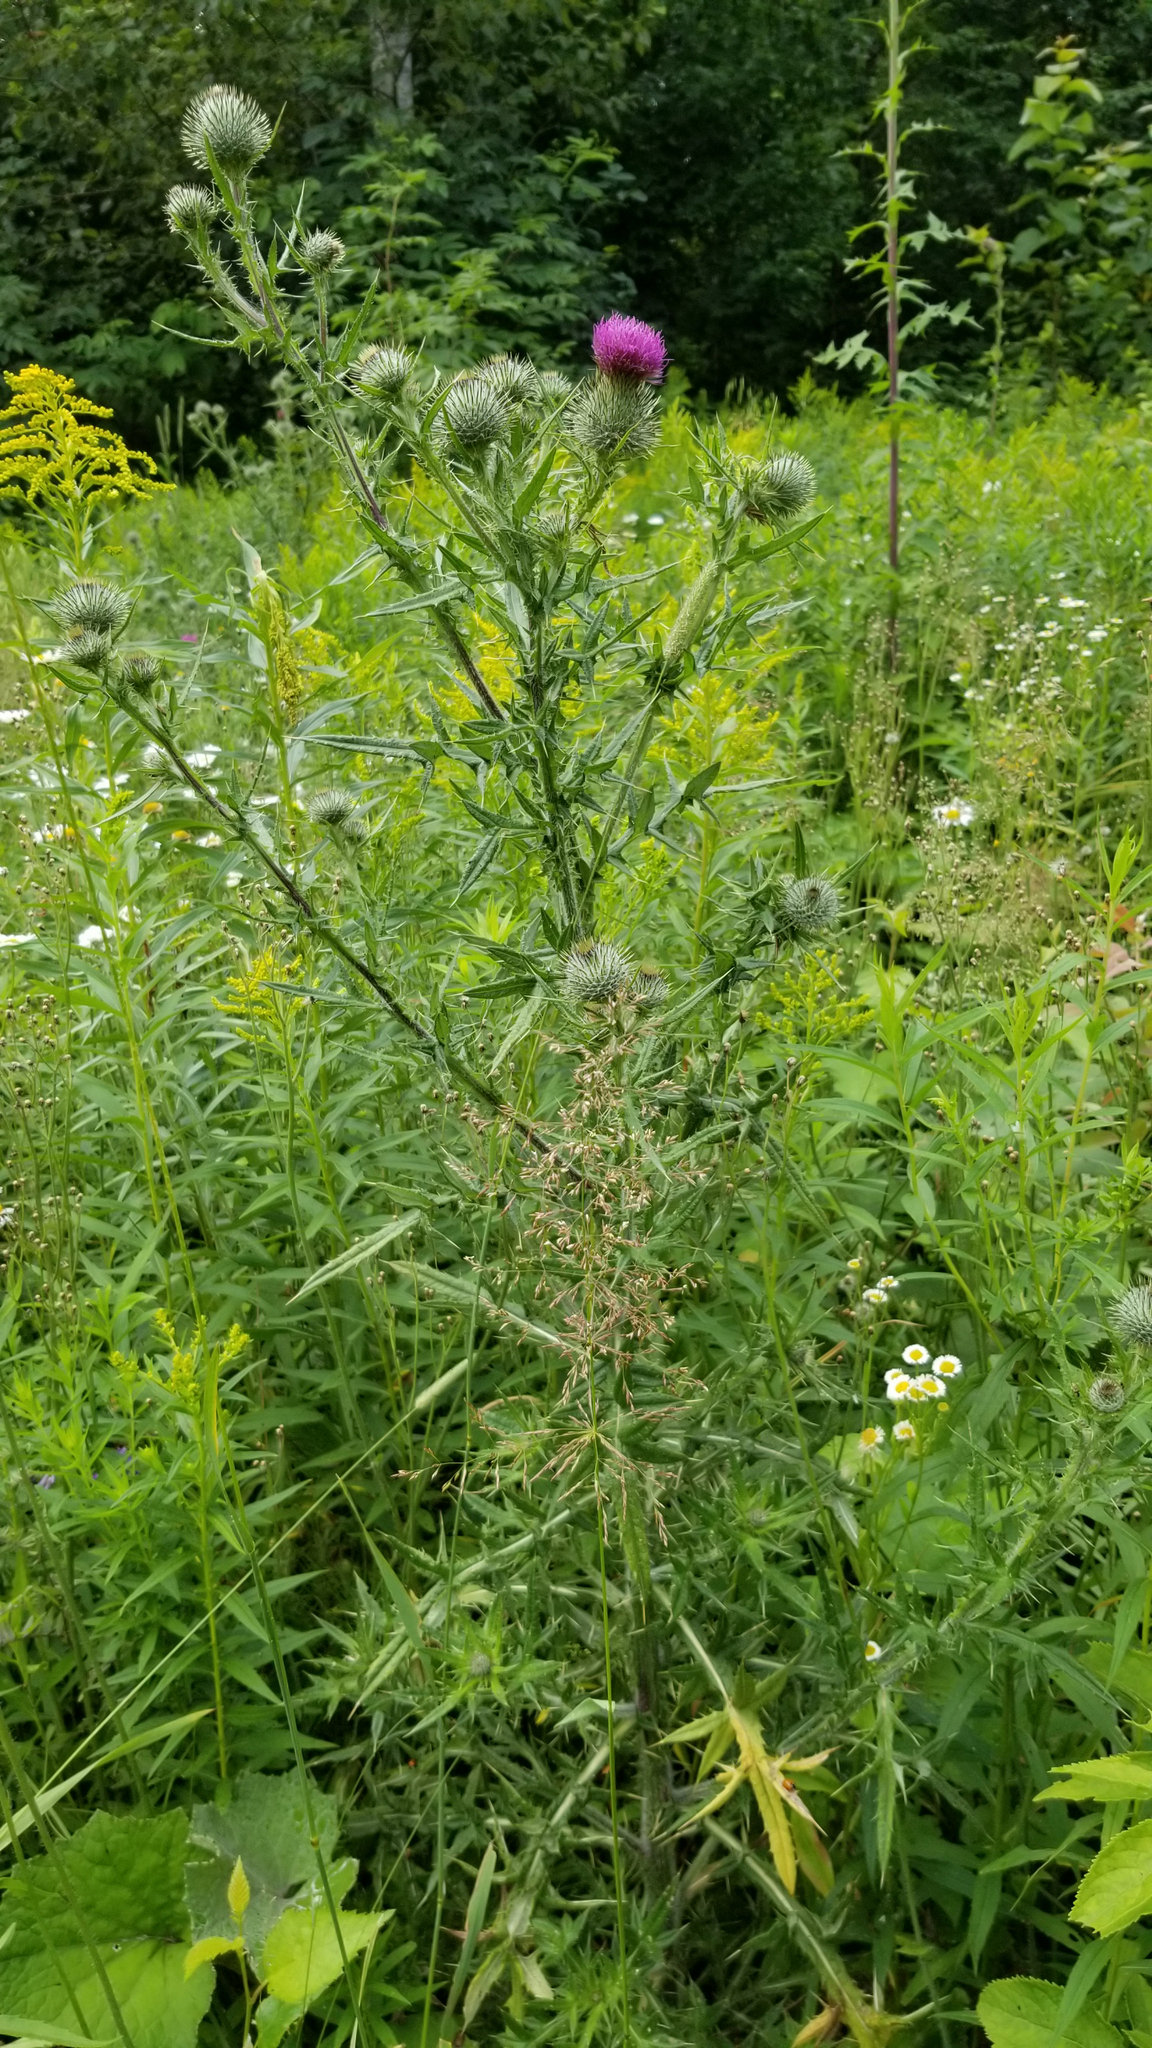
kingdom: Plantae
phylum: Tracheophyta
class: Magnoliopsida
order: Asterales
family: Asteraceae
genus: Cirsium
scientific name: Cirsium vulgare
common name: Bull thistle
